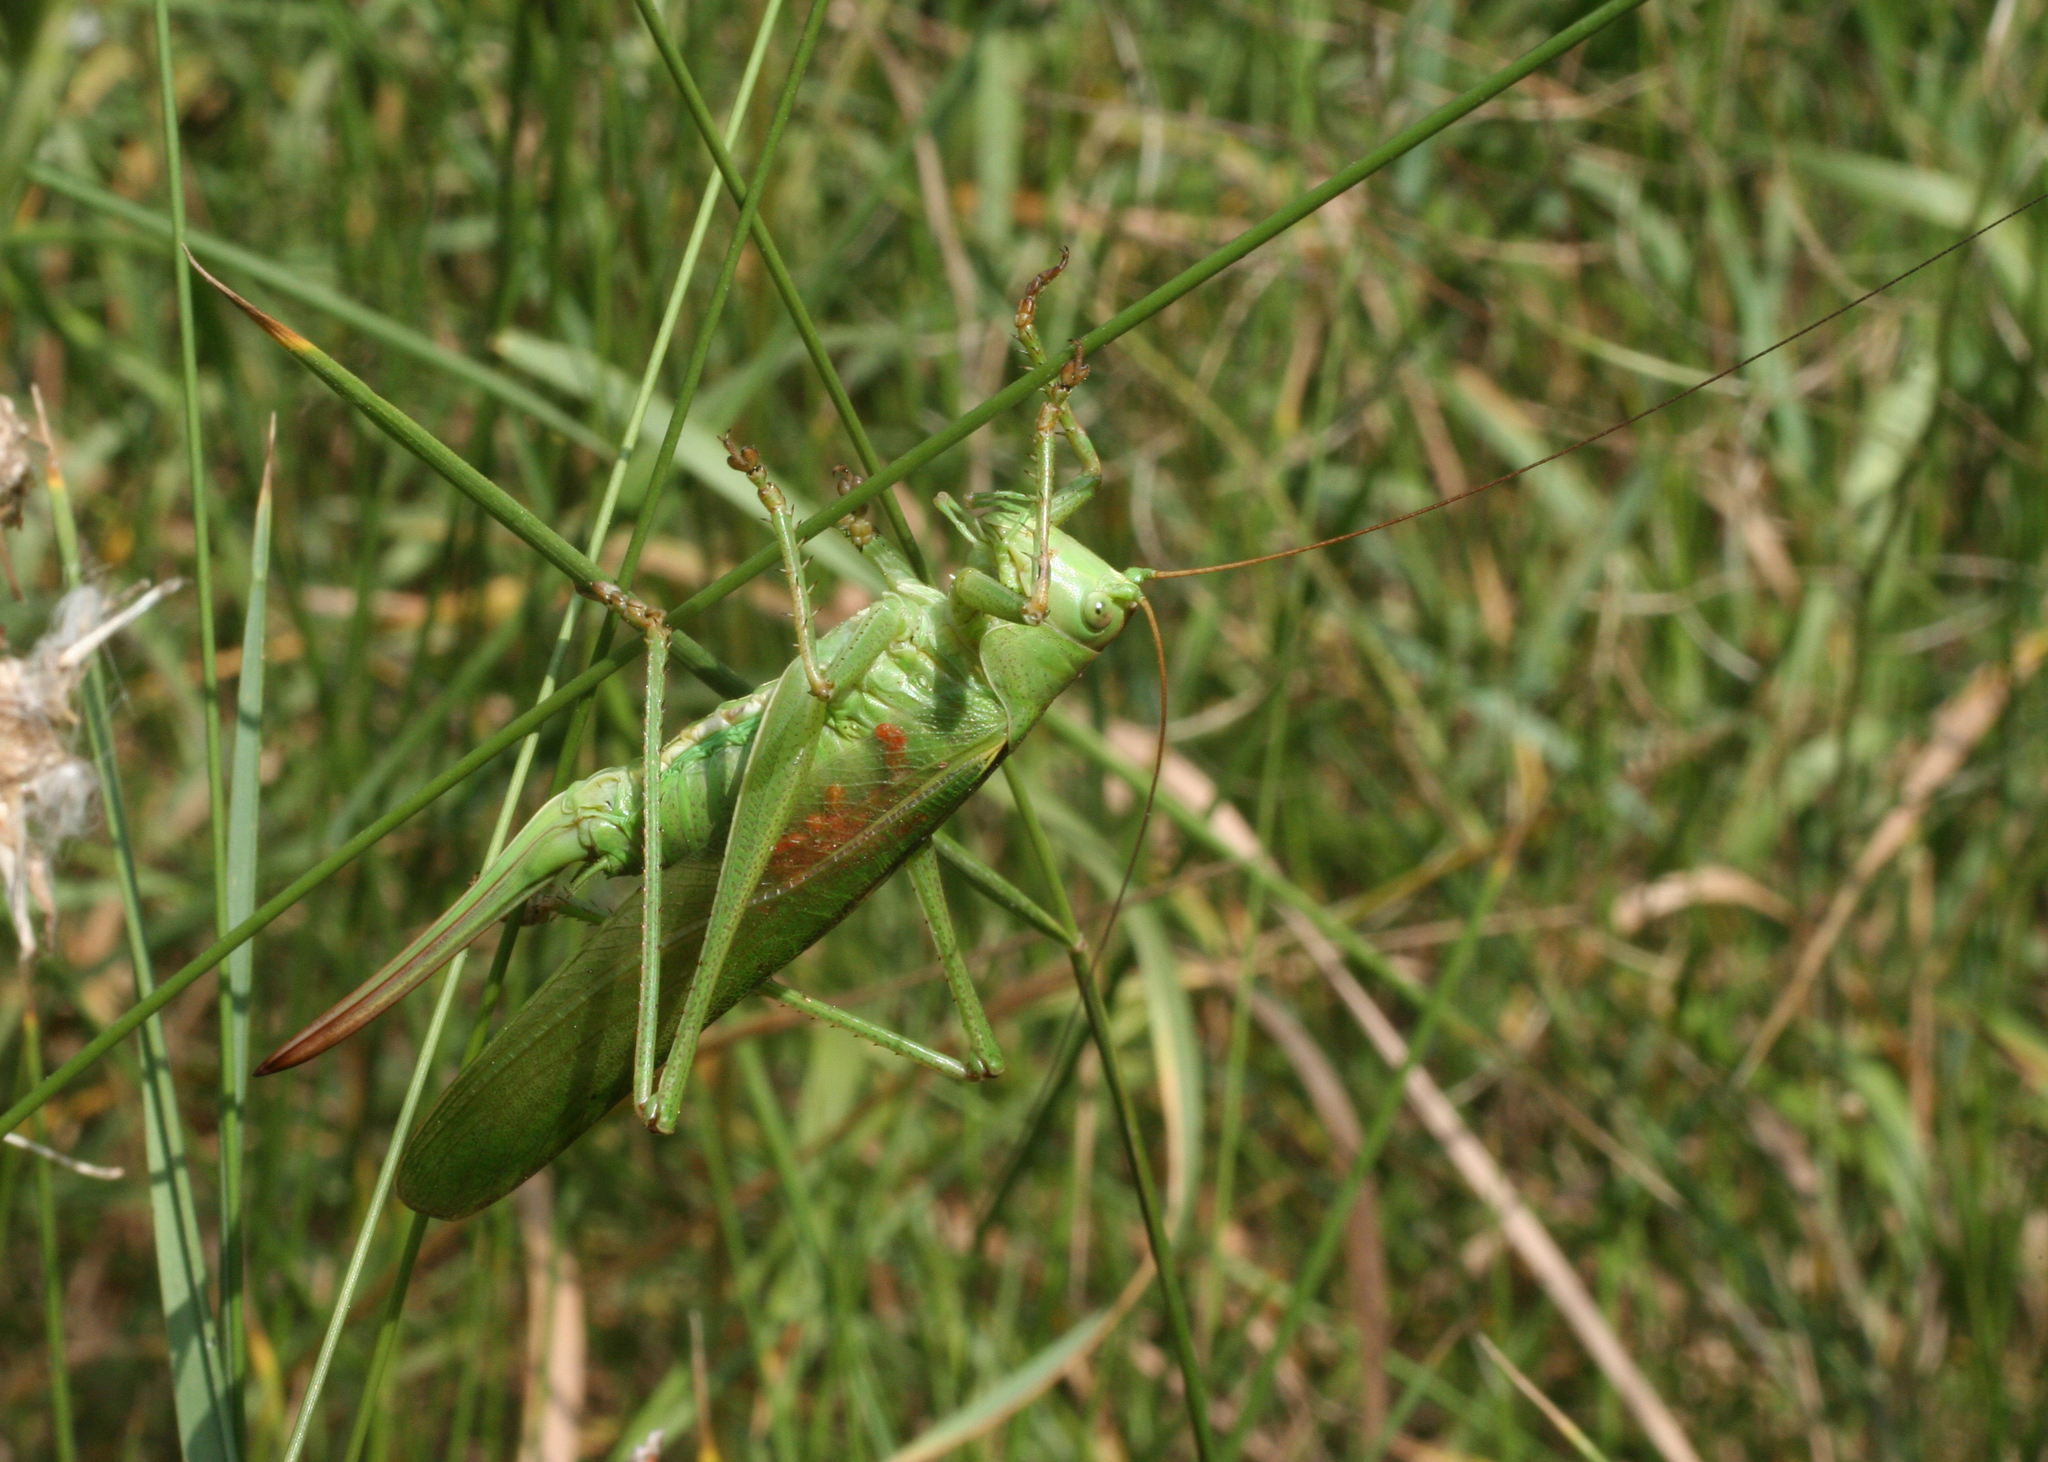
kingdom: Animalia
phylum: Arthropoda
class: Insecta
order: Orthoptera
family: Tettigoniidae
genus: Tettigonia
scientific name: Tettigonia viridissima
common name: Great green bush-cricket
